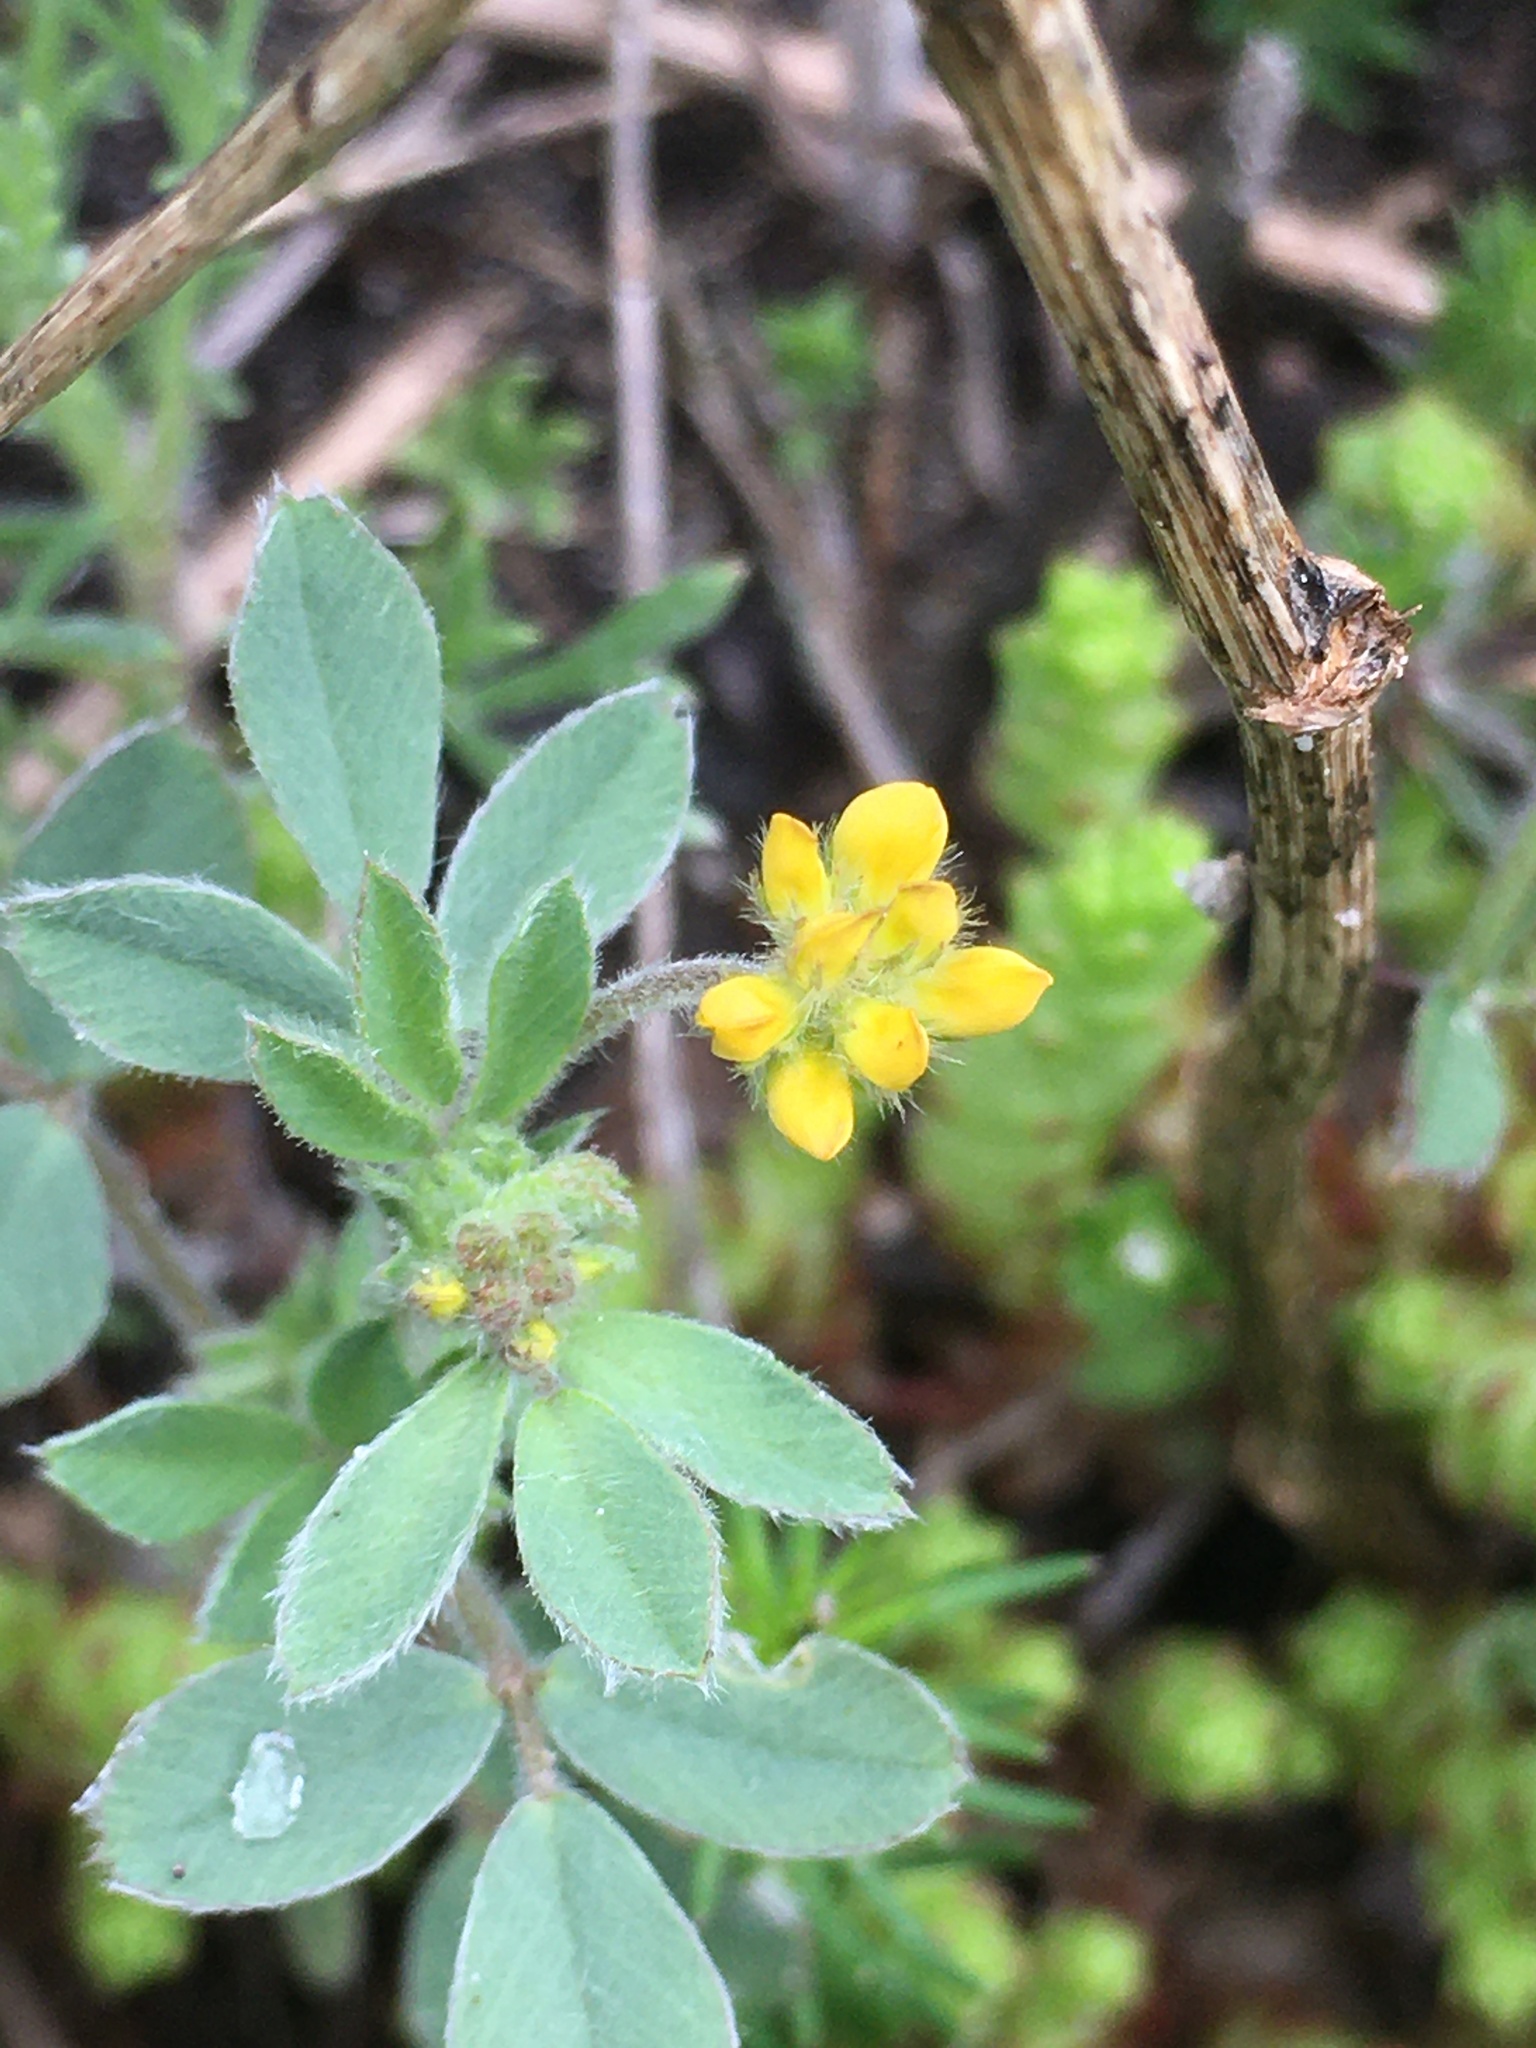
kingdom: Plantae
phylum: Tracheophyta
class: Magnoliopsida
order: Fabales
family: Fabaceae
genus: Medicago
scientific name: Medicago minima
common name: Little bur-clover
